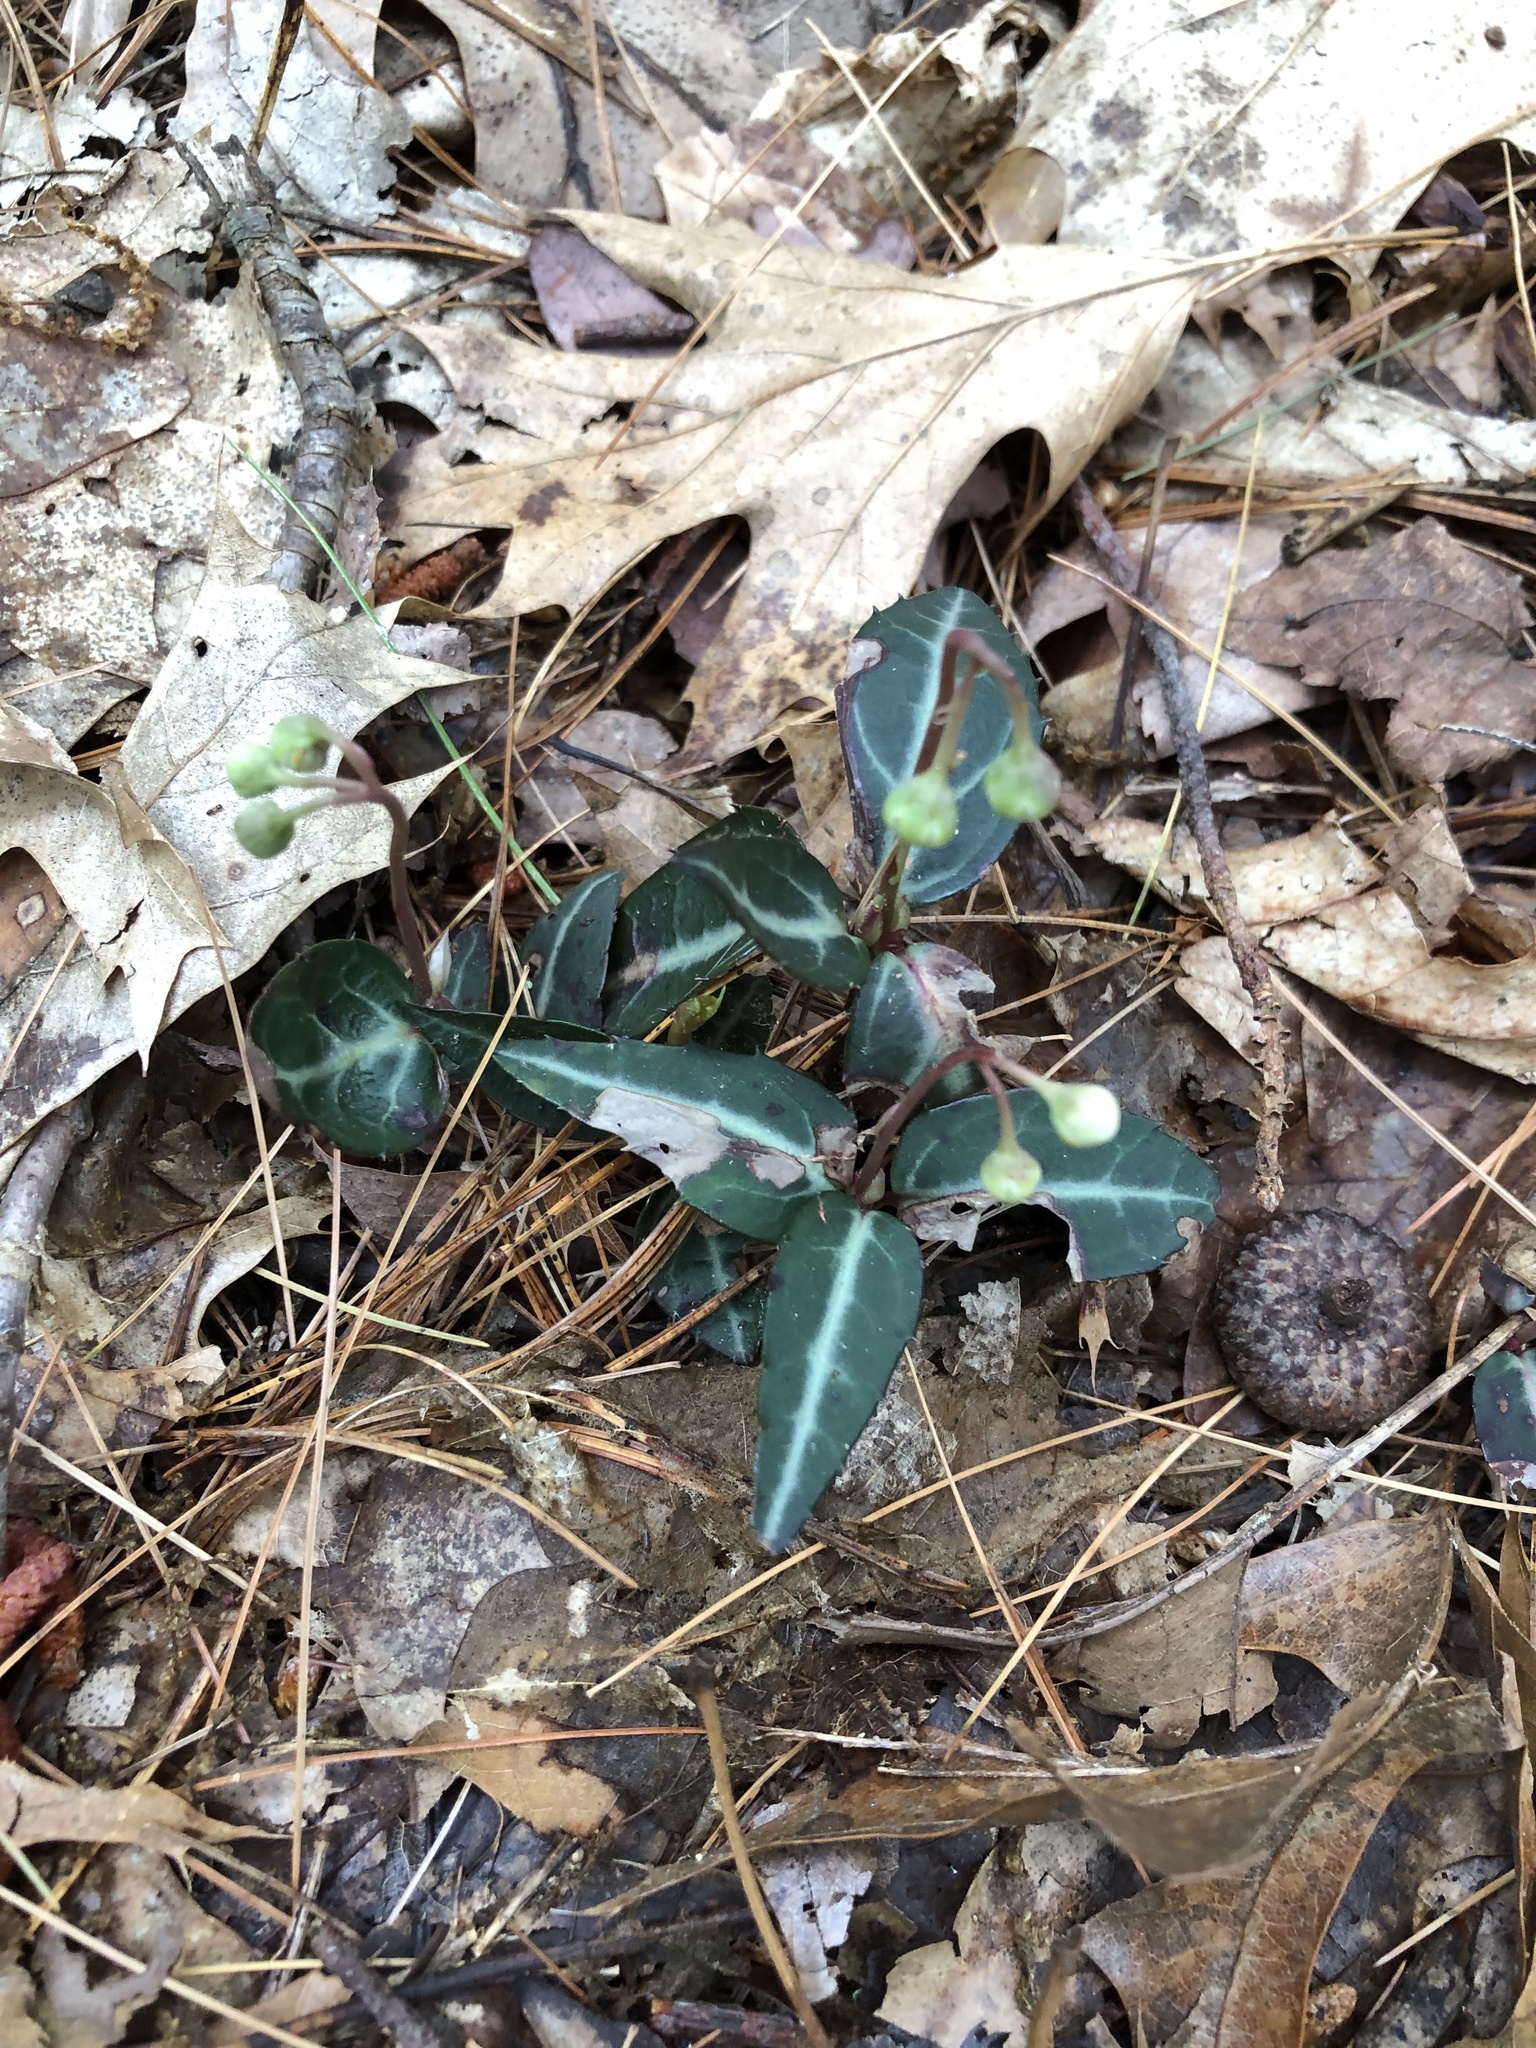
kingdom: Plantae
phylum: Tracheophyta
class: Magnoliopsida
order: Ericales
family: Ericaceae
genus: Chimaphila
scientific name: Chimaphila maculata
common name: Spotted pipsissewa
